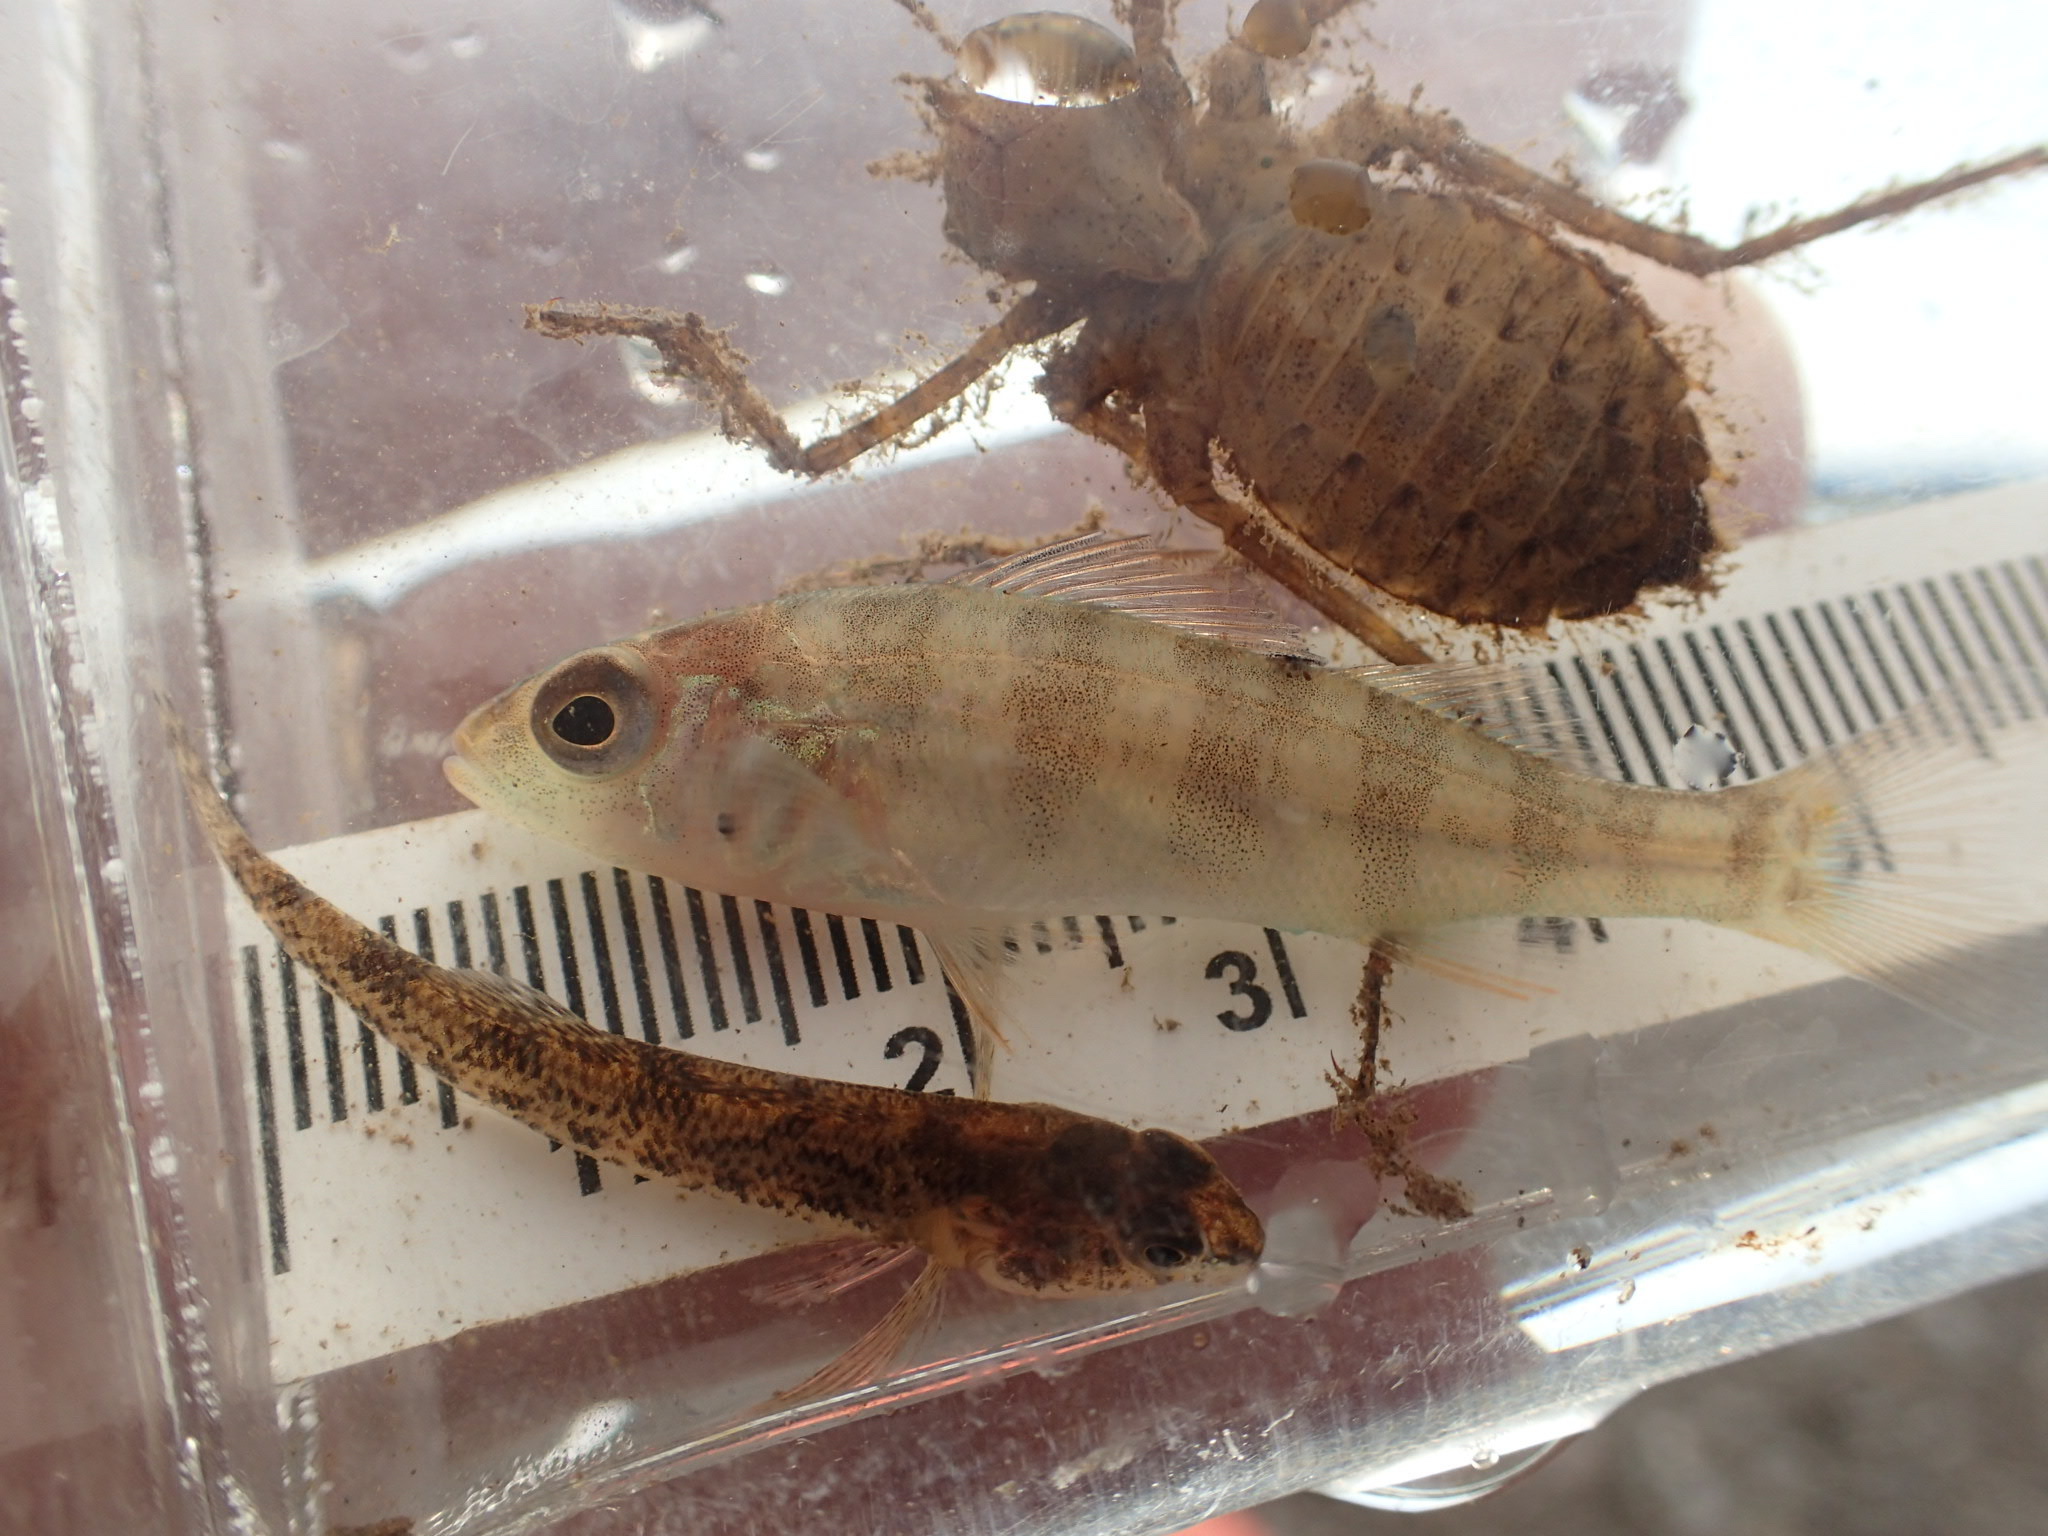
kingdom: Animalia
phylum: Chordata
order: Perciformes
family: Percidae
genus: Perca
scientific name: Perca flavescens
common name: Yellow perch
